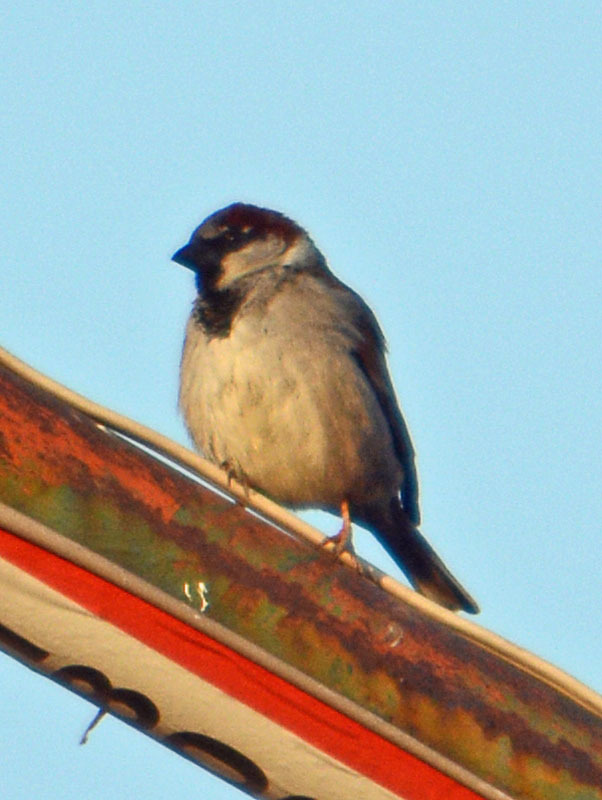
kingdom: Animalia
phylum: Chordata
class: Aves
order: Passeriformes
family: Passeridae
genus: Passer
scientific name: Passer domesticus
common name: House sparrow
